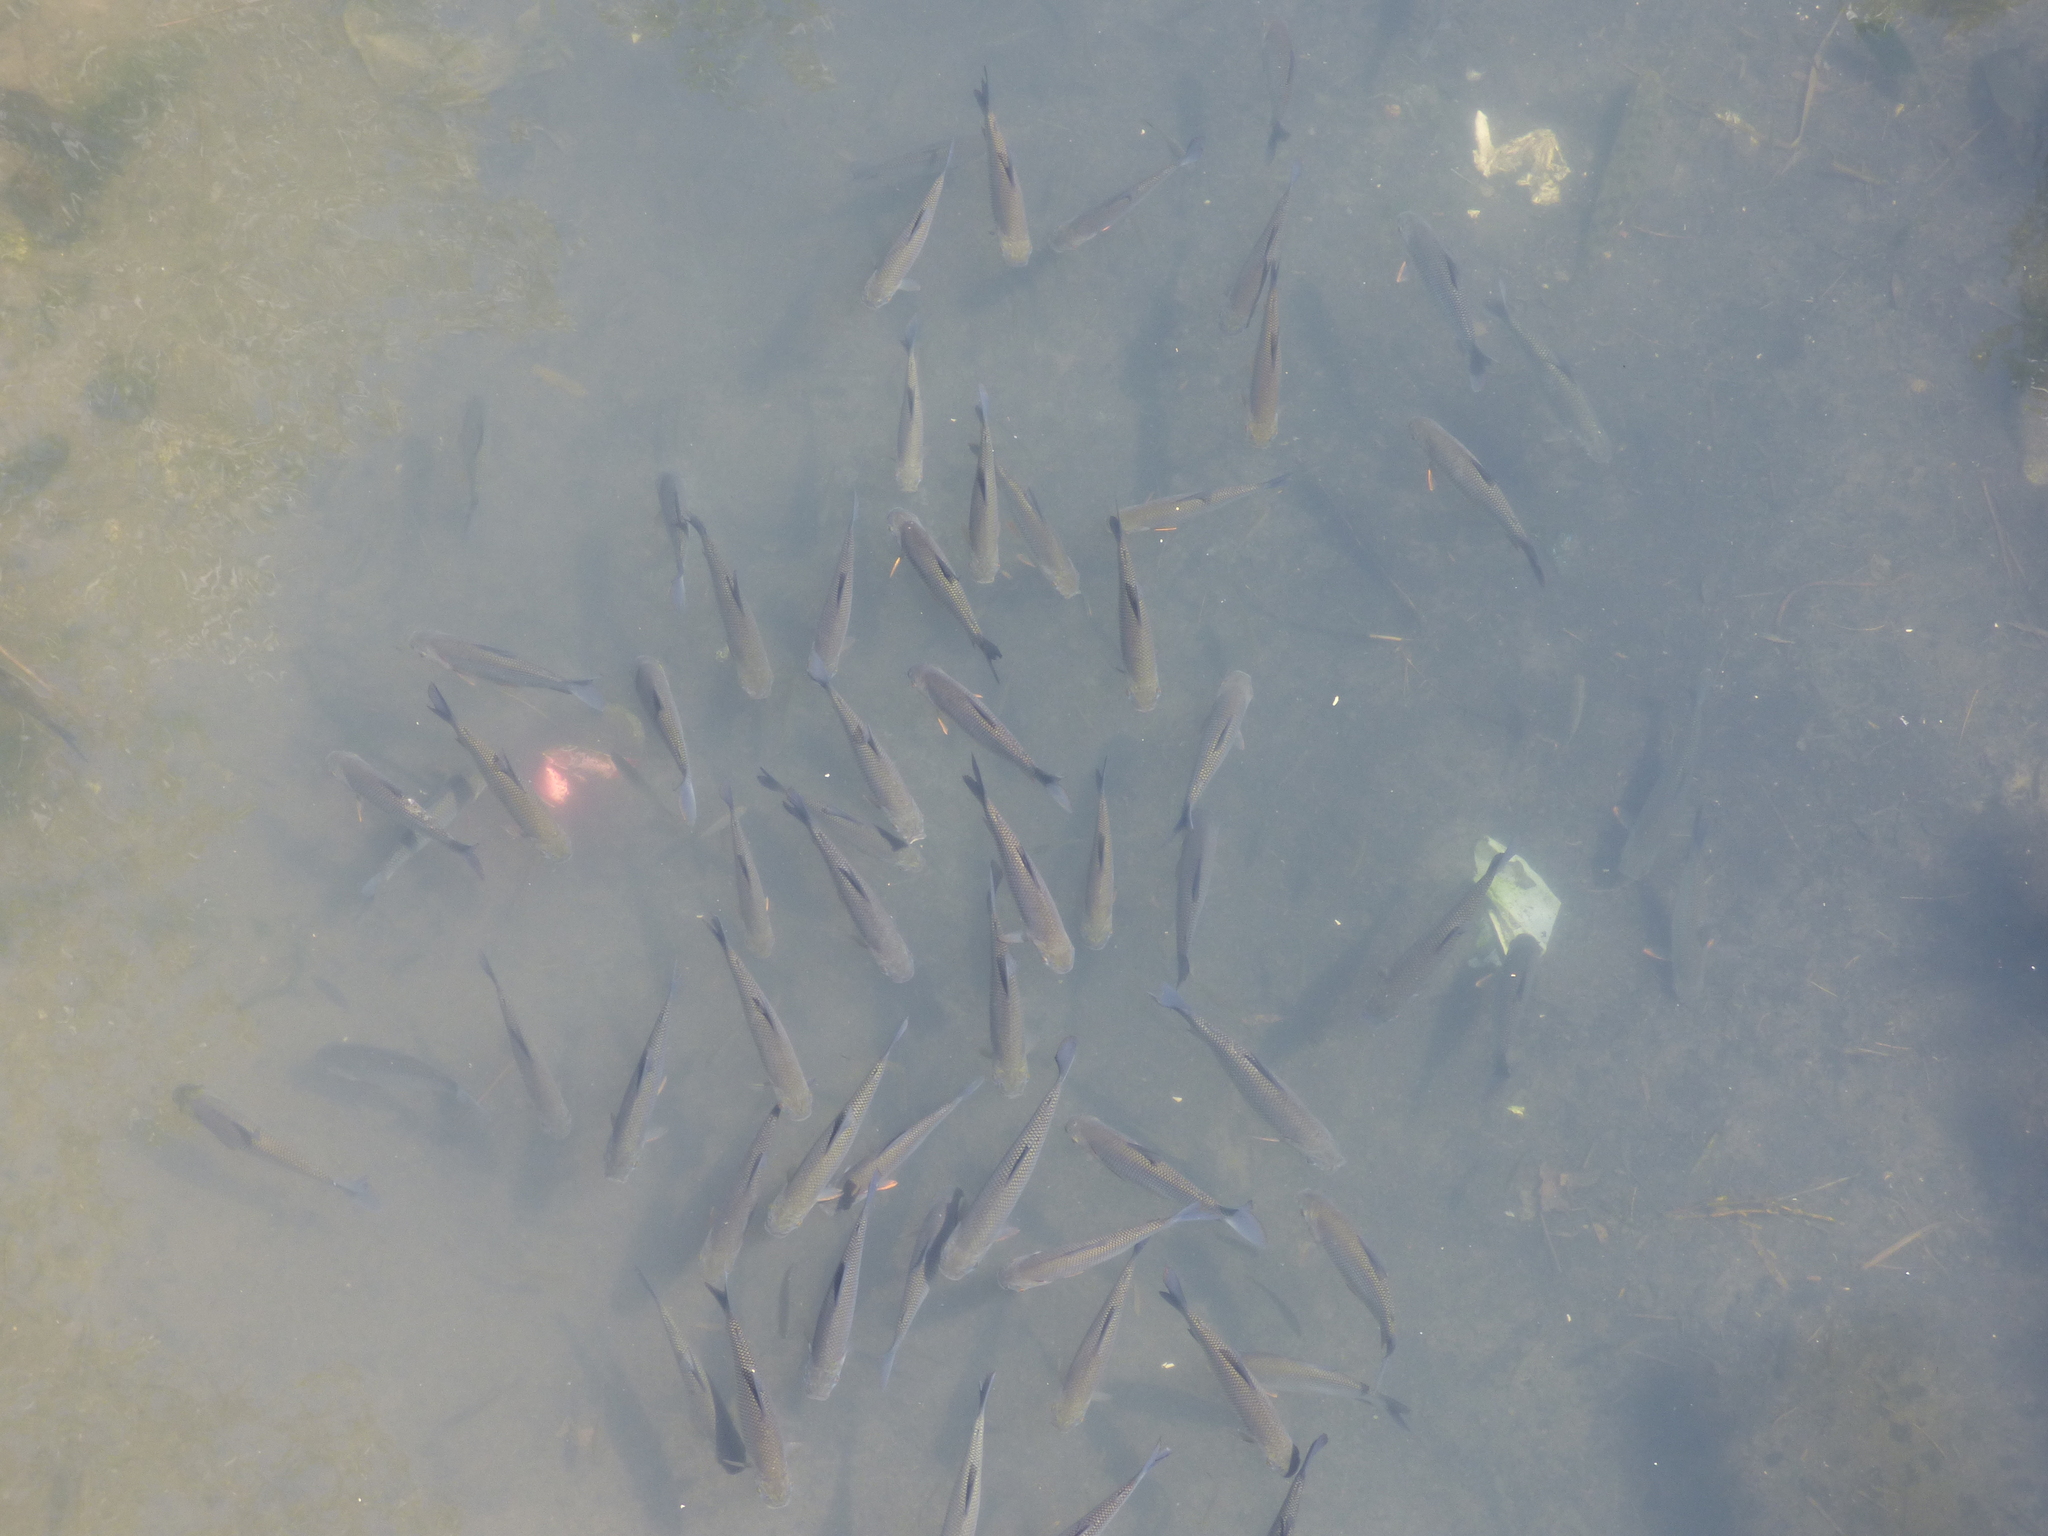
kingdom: Animalia
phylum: Chordata
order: Characiformes
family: Prochilodontidae
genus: Prochilodus
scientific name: Prochilodus lineatus
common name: Curimbata
